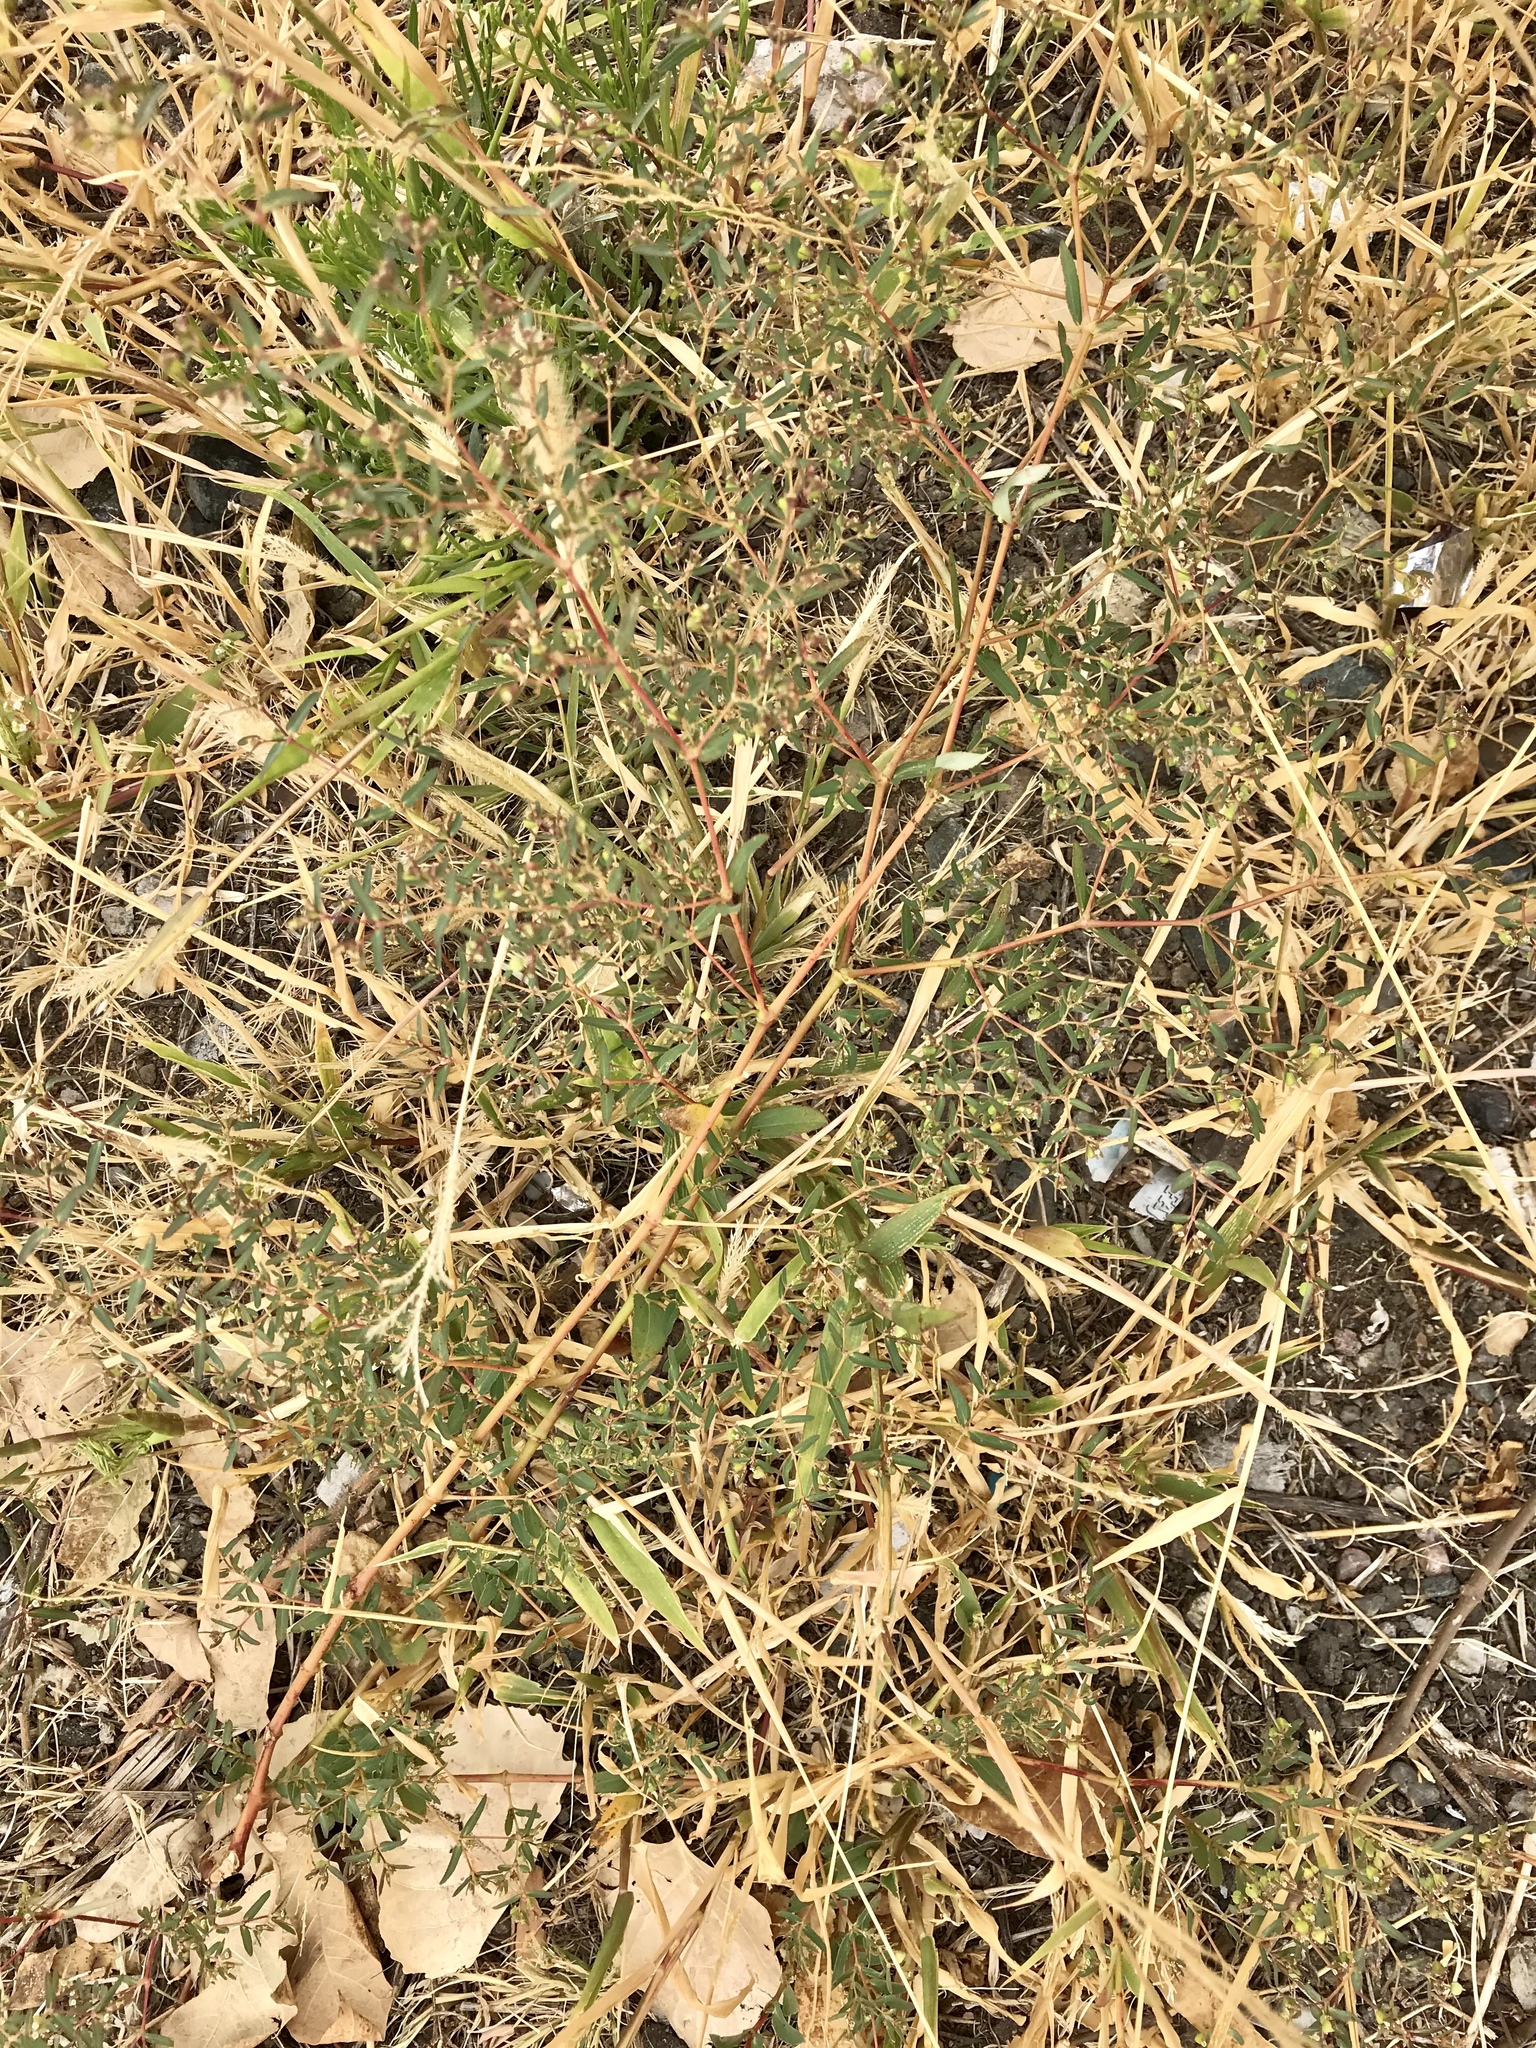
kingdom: Plantae
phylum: Tracheophyta
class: Magnoliopsida
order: Malpighiales
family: Euphorbiaceae
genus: Euphorbia
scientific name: Euphorbia hyssopifolia
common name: Hyssopleaf sandmat
